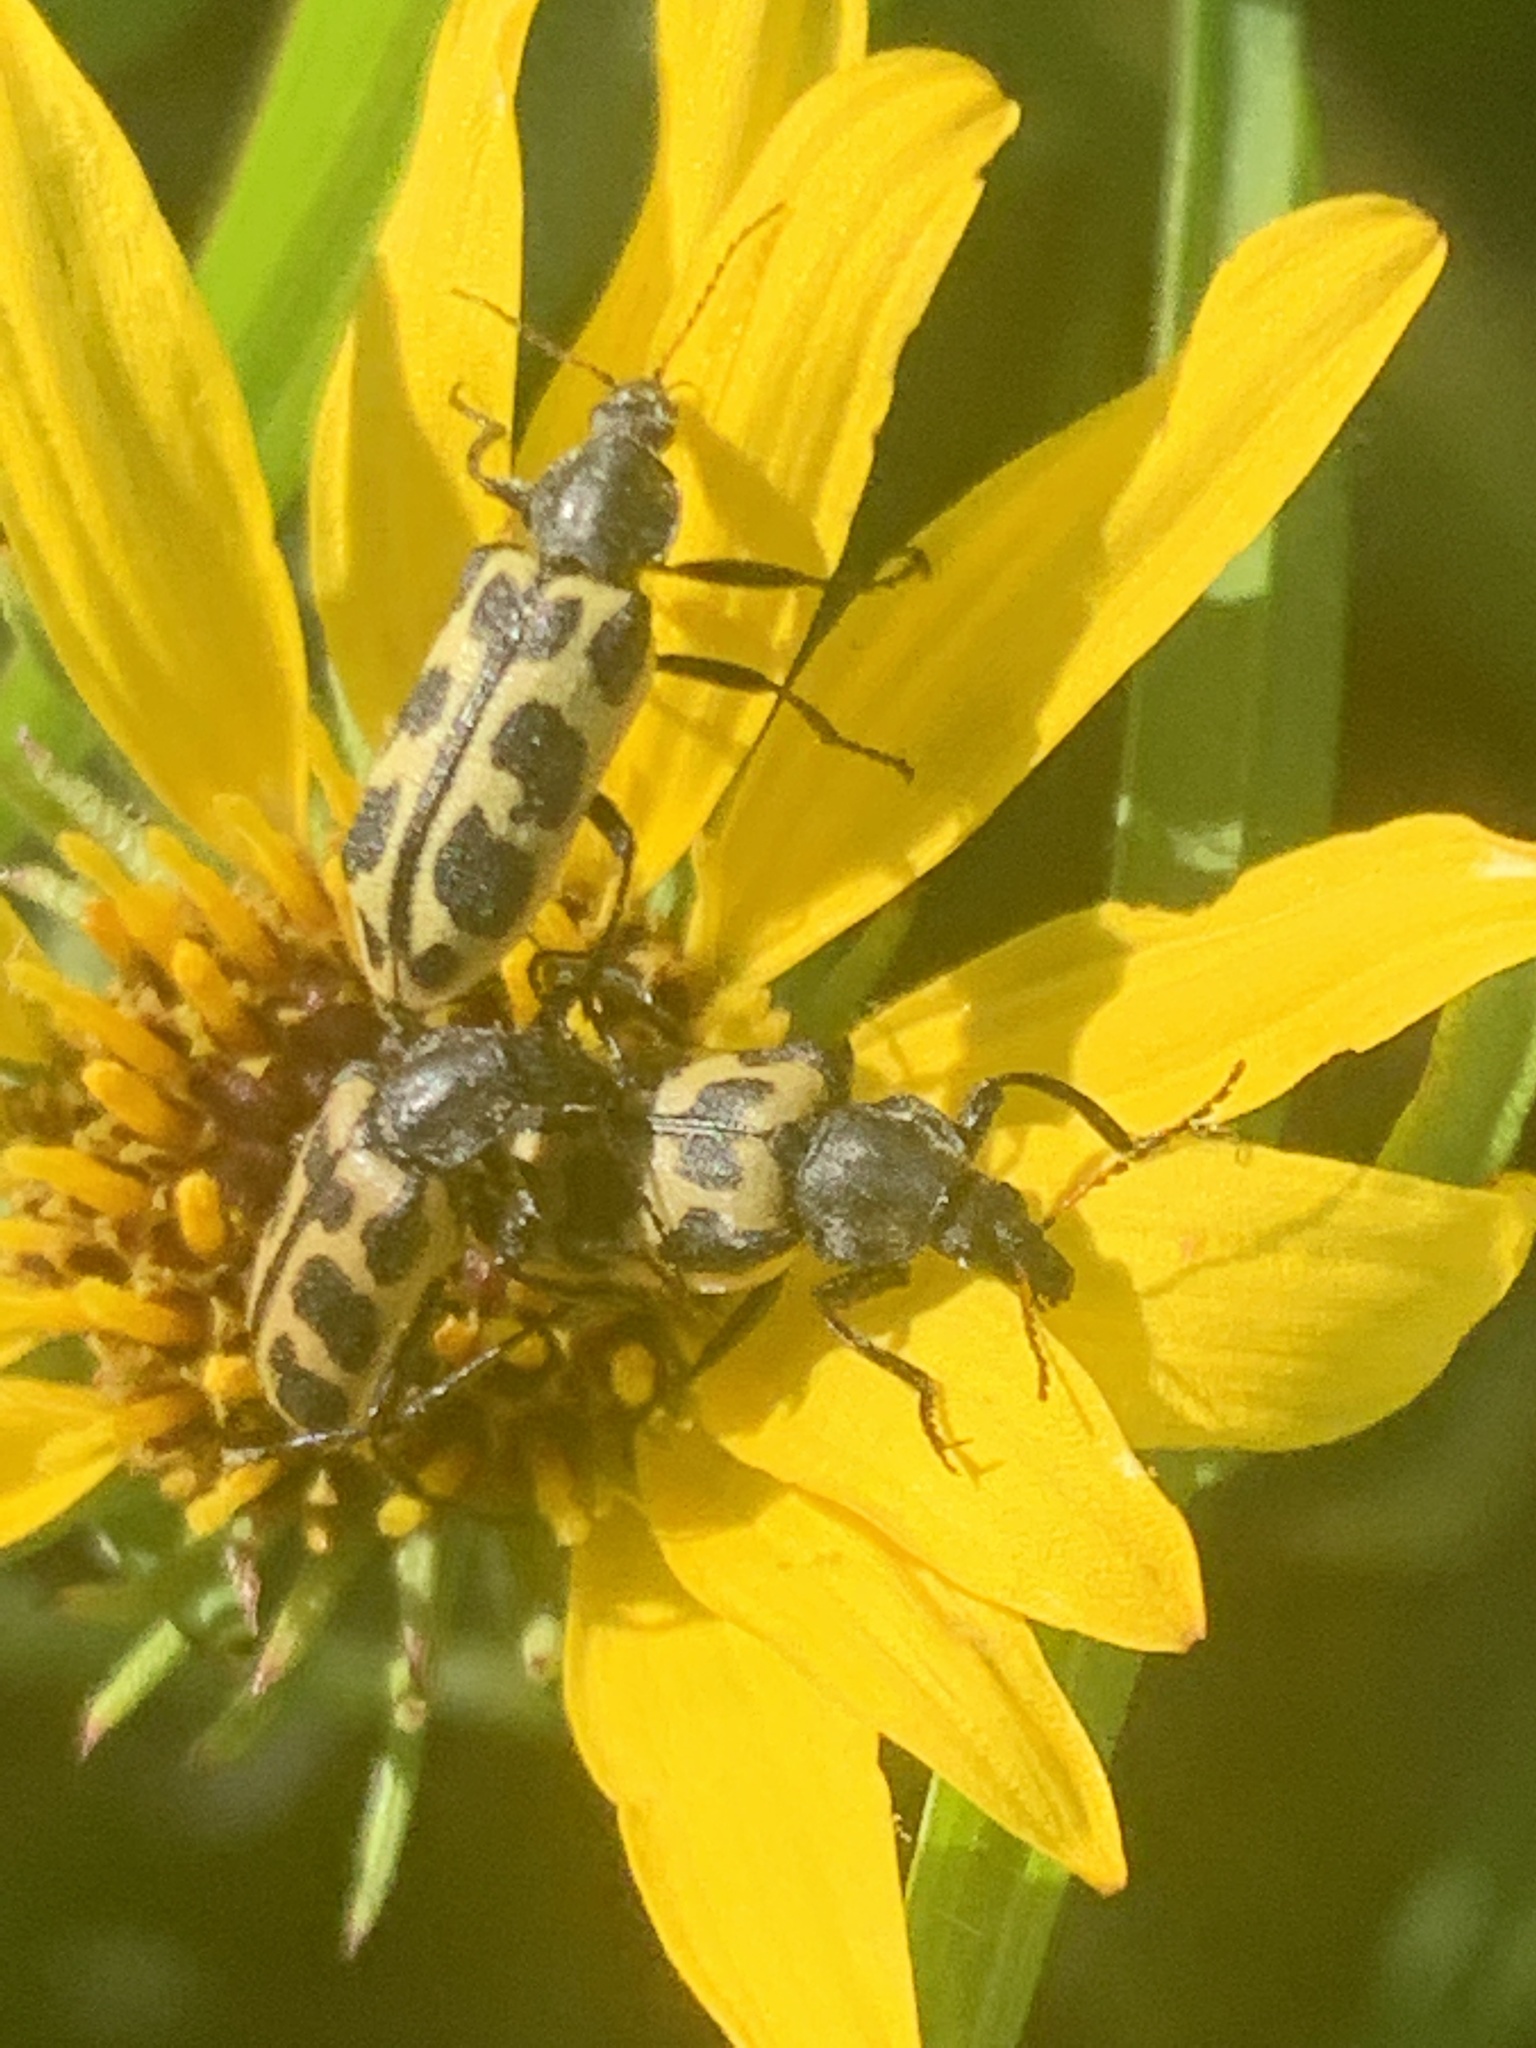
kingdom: Animalia
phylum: Arthropoda
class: Insecta
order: Coleoptera
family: Melyridae
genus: Astylus
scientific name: Astylus atromaculatus
